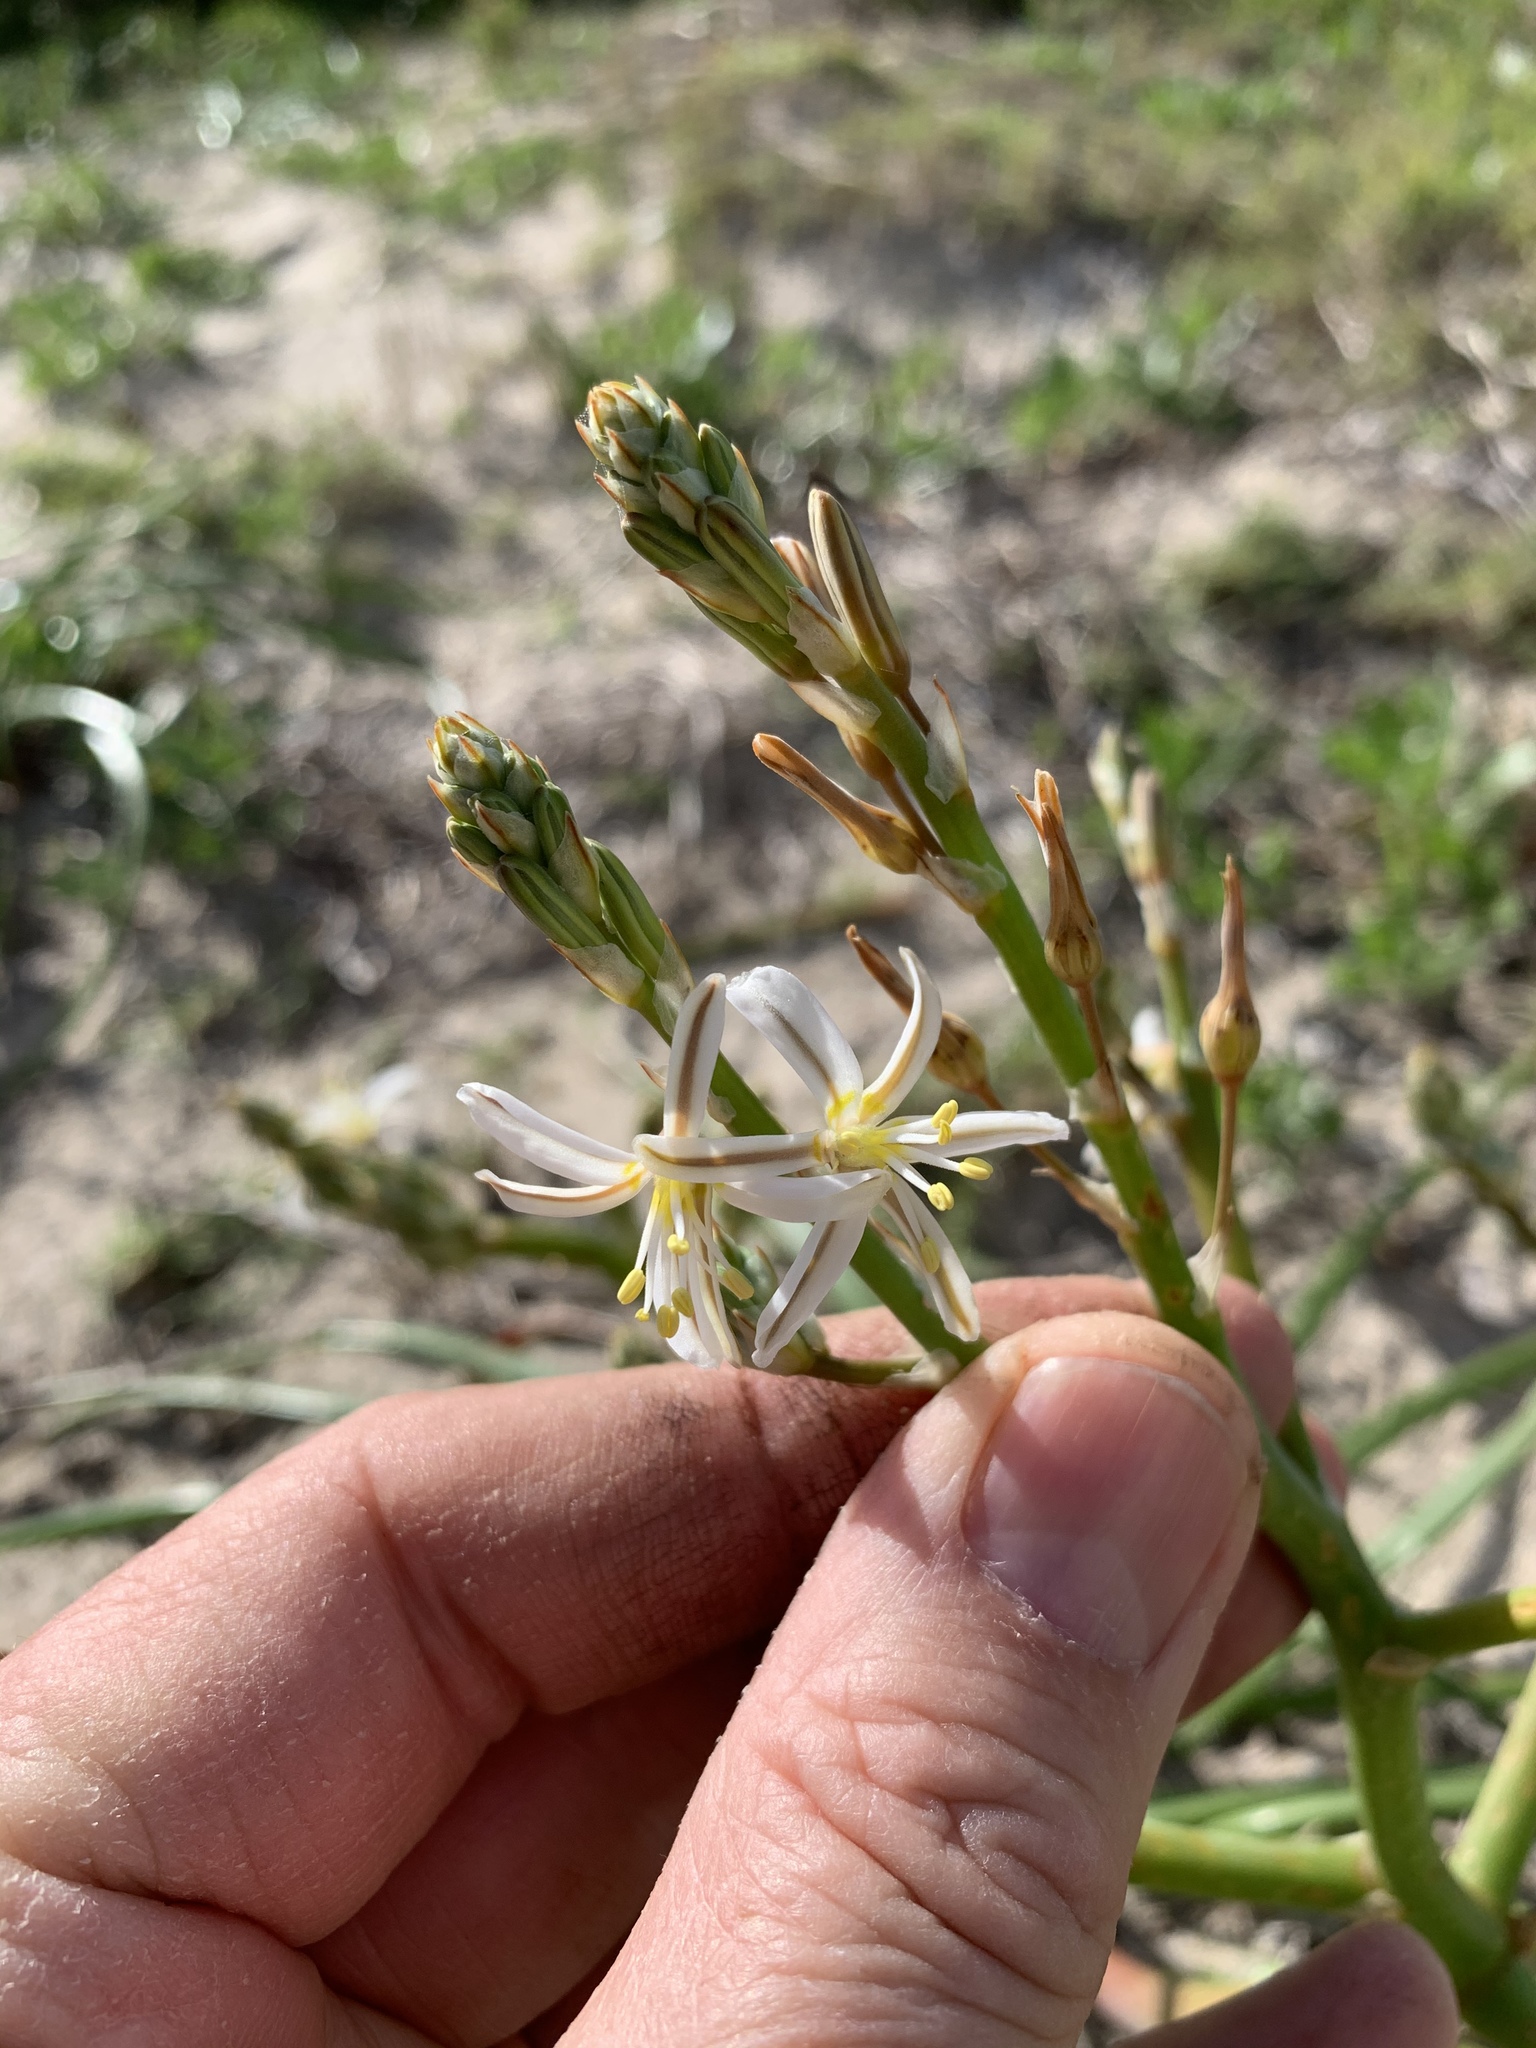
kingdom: Plantae
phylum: Tracheophyta
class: Liliopsida
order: Asparagales
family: Asphodelaceae
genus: Trachyandra
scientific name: Trachyandra divaricata
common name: Dune onionweed
